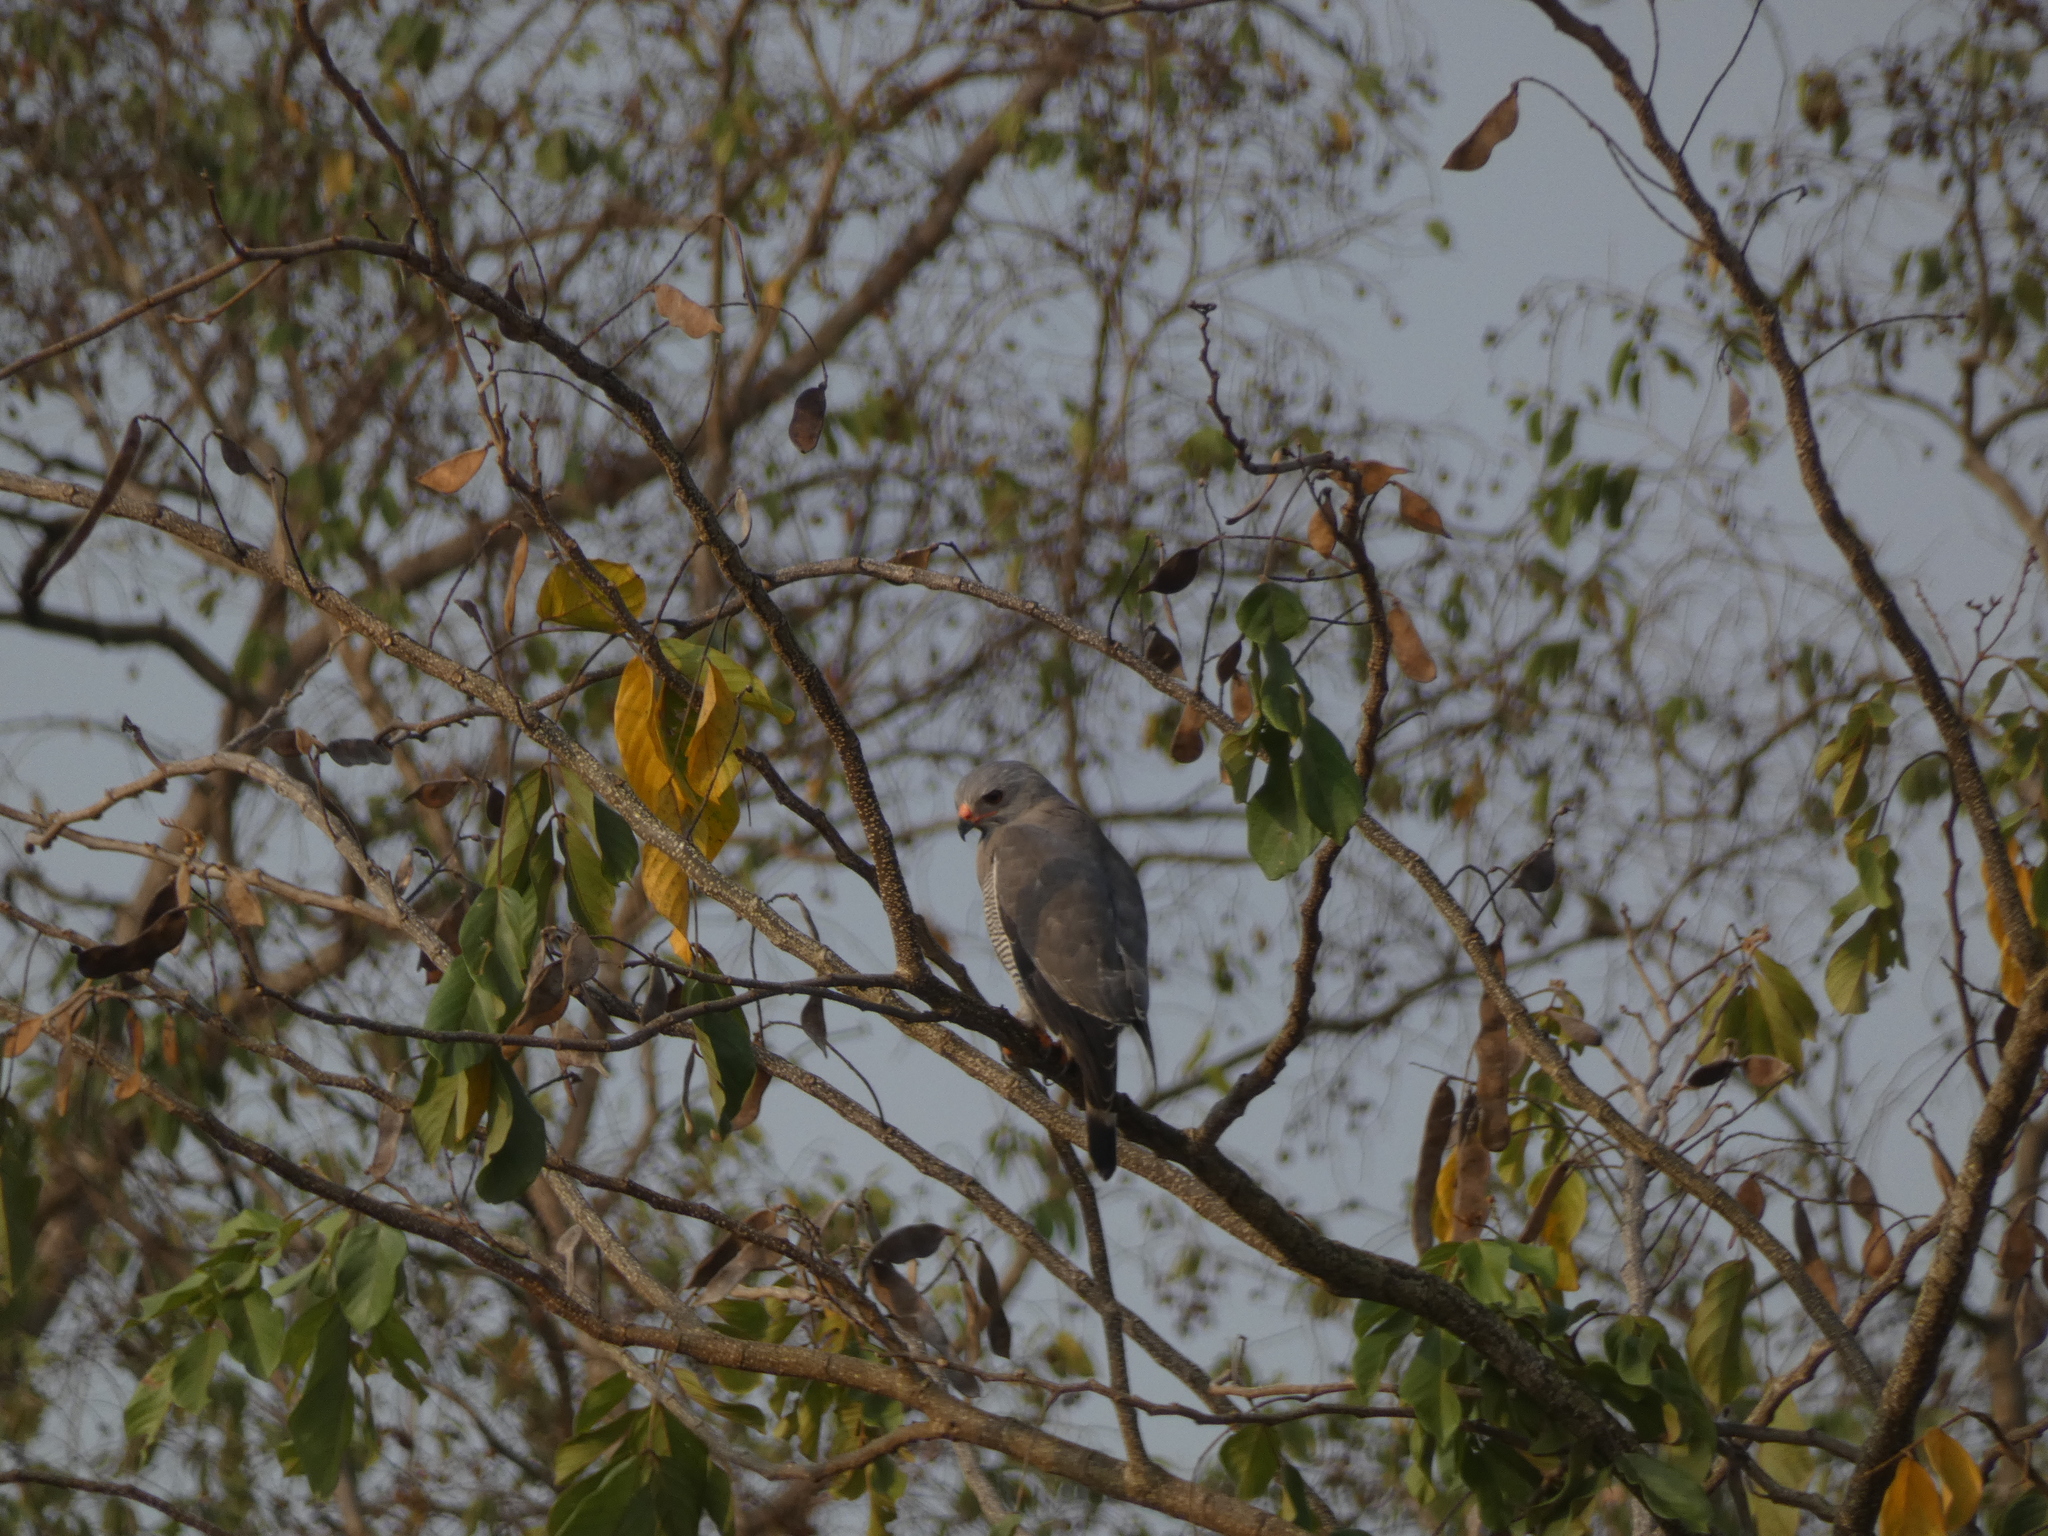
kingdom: Animalia
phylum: Chordata
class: Aves
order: Accipitriformes
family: Accipitridae
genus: Kaupifalco
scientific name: Kaupifalco monogrammicus
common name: Lizard buzzard
